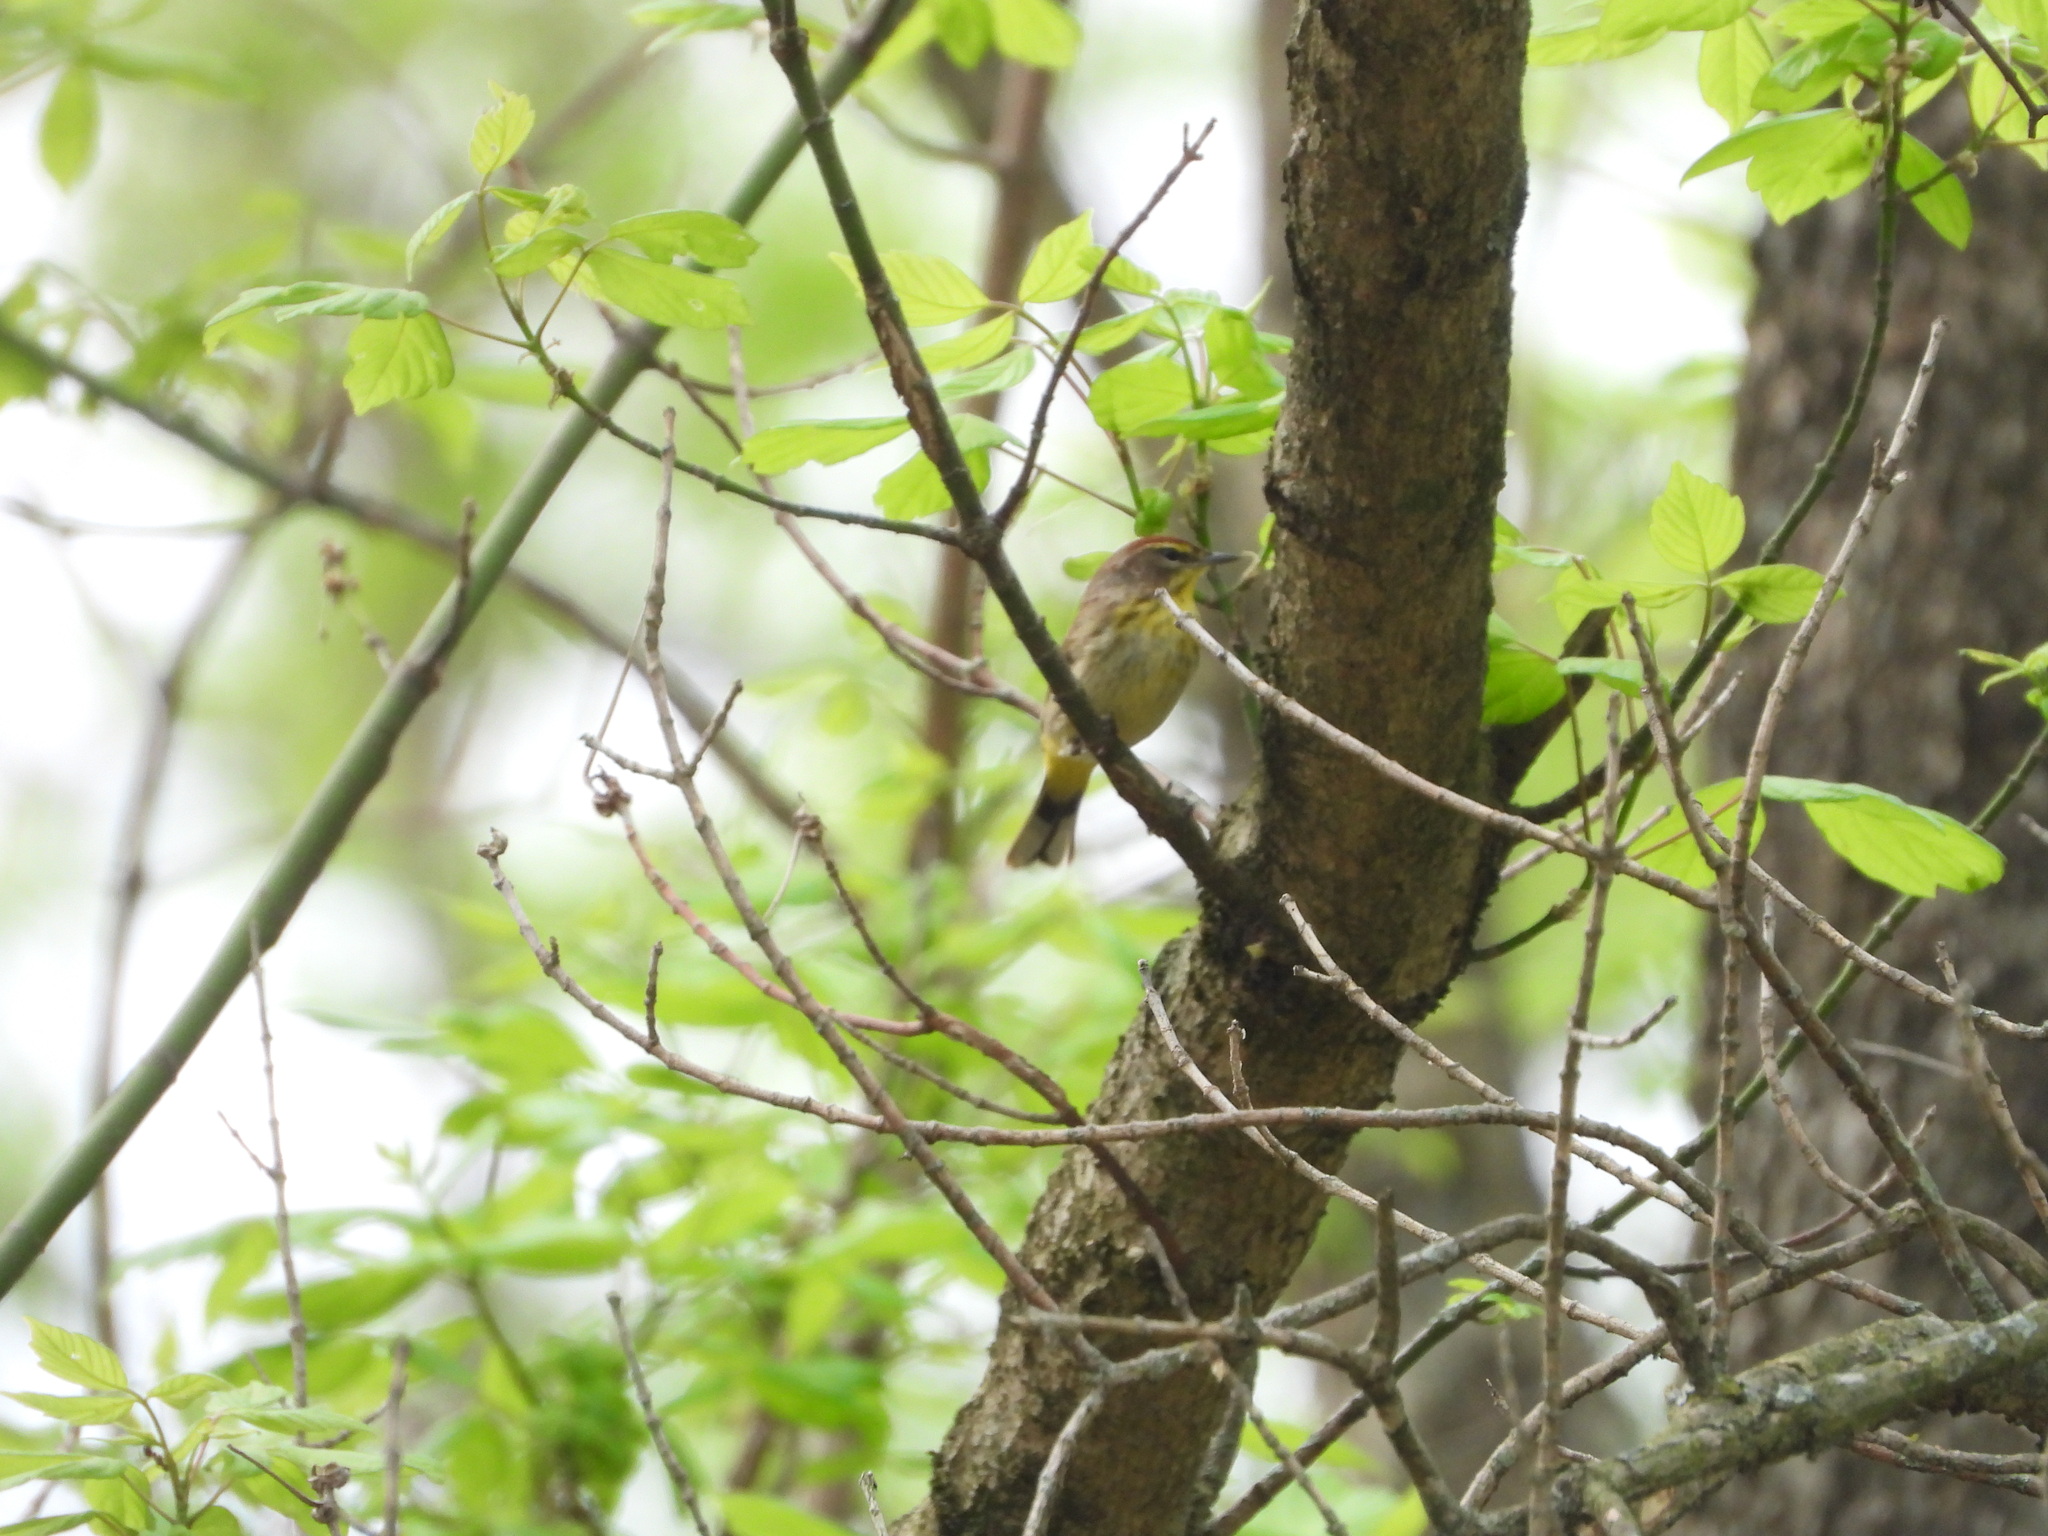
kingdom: Animalia
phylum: Chordata
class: Aves
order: Passeriformes
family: Parulidae
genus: Setophaga
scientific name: Setophaga palmarum
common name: Palm warbler
